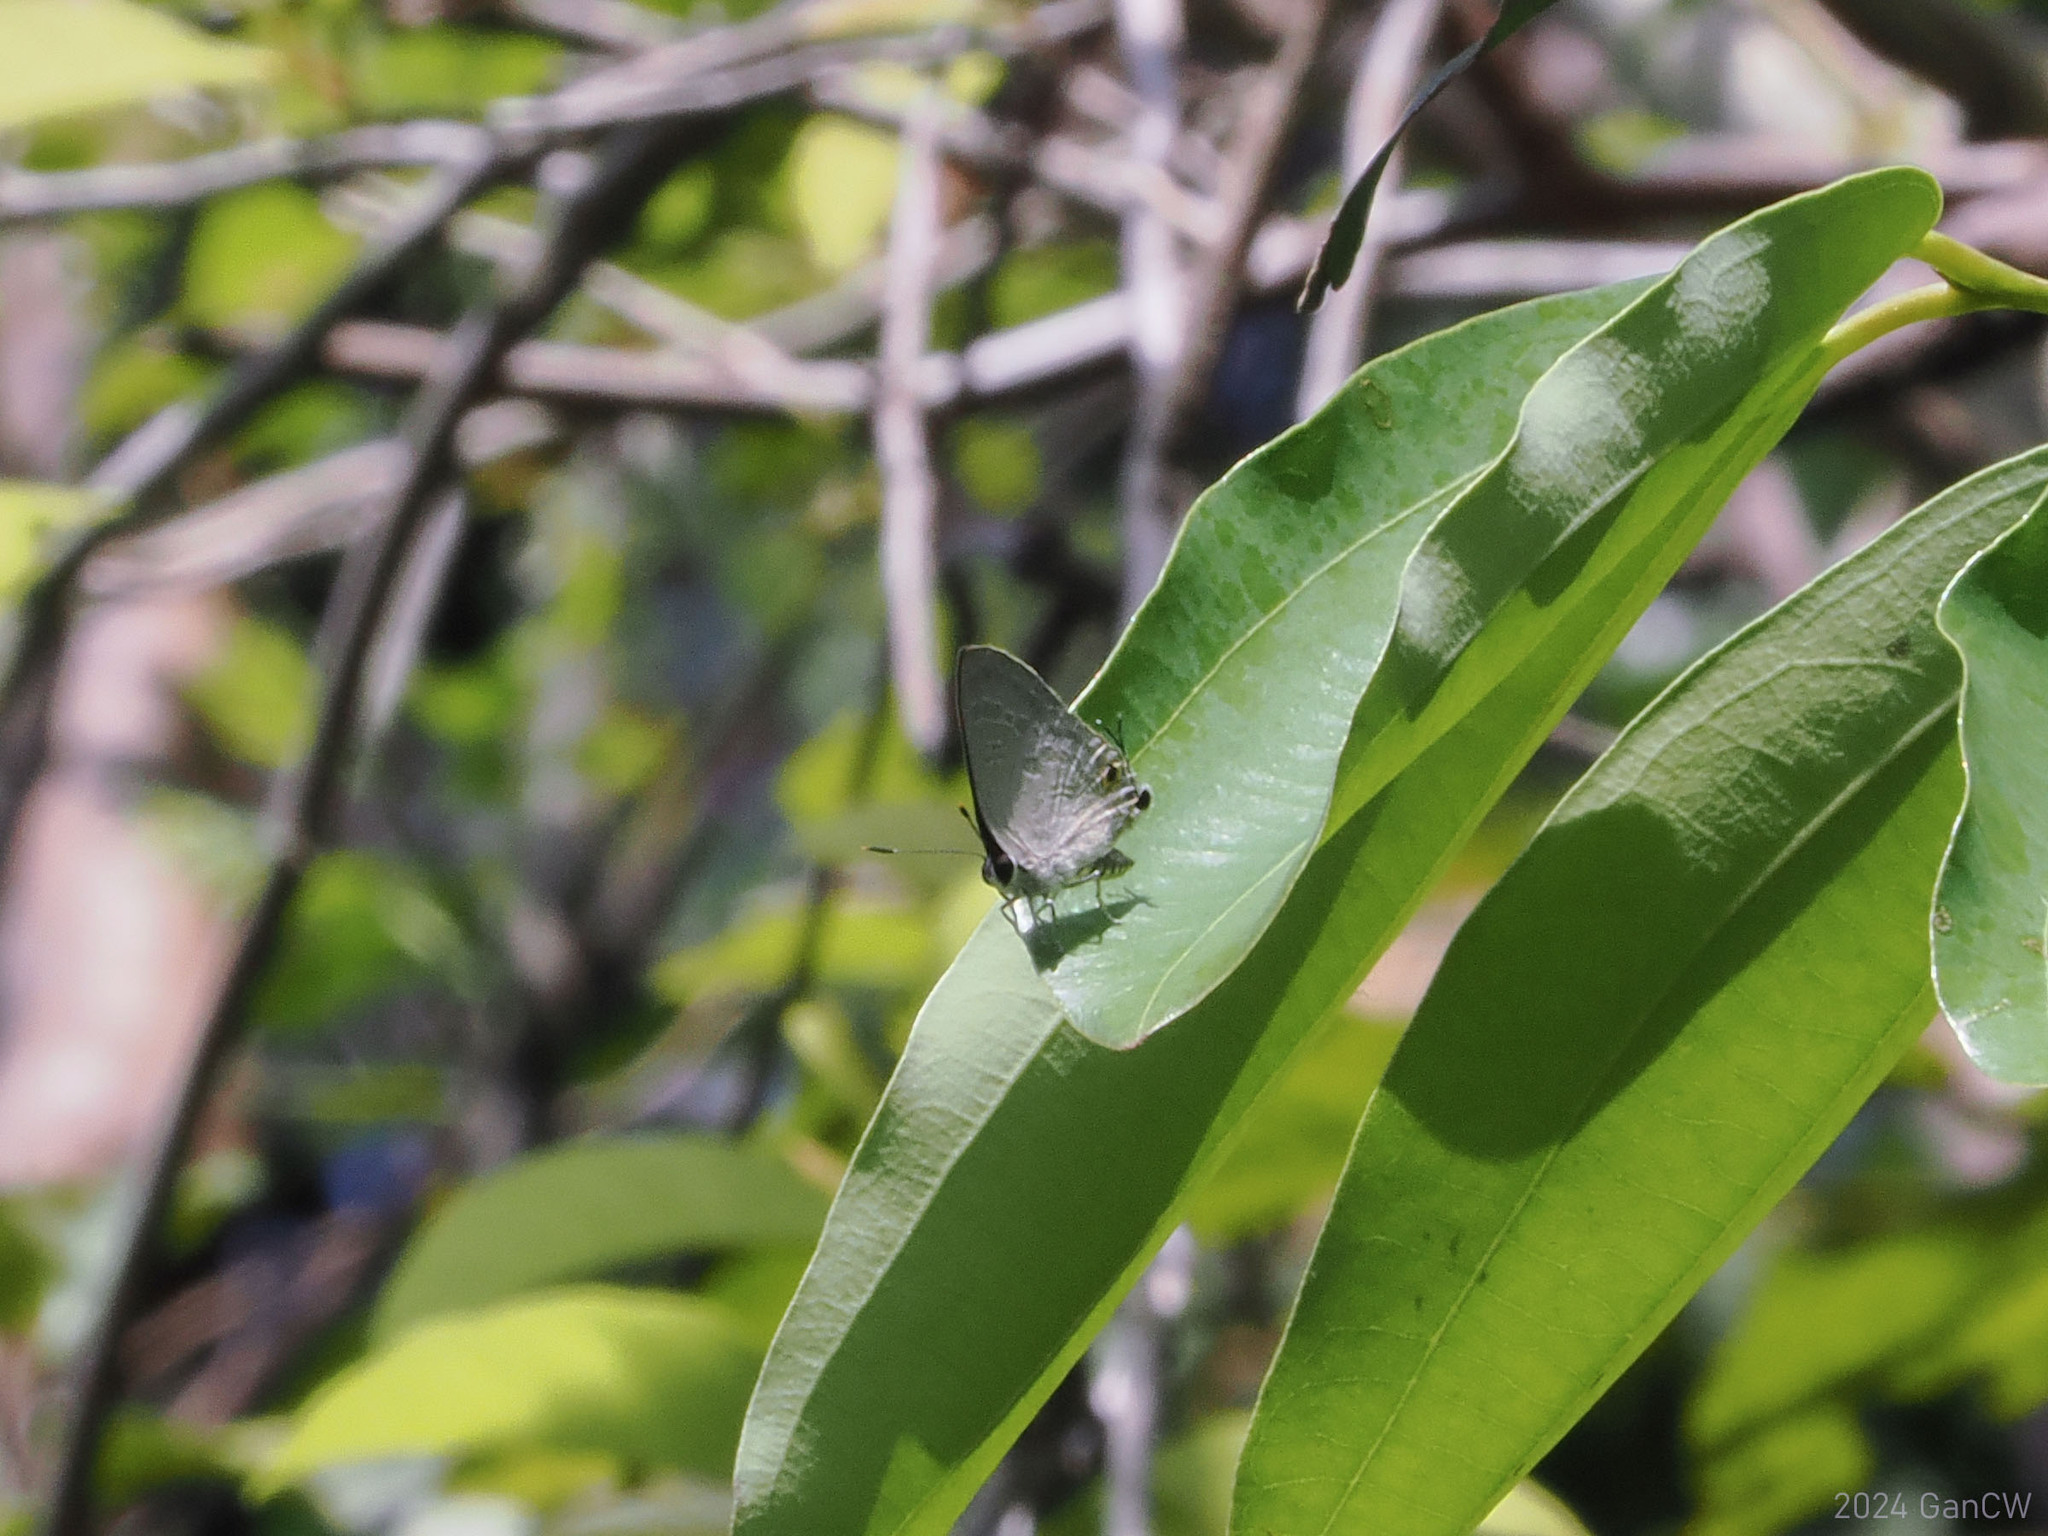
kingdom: Animalia
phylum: Arthropoda
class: Insecta
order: Lepidoptera
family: Lycaenidae
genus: Deudorix
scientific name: Deudorix elioti
